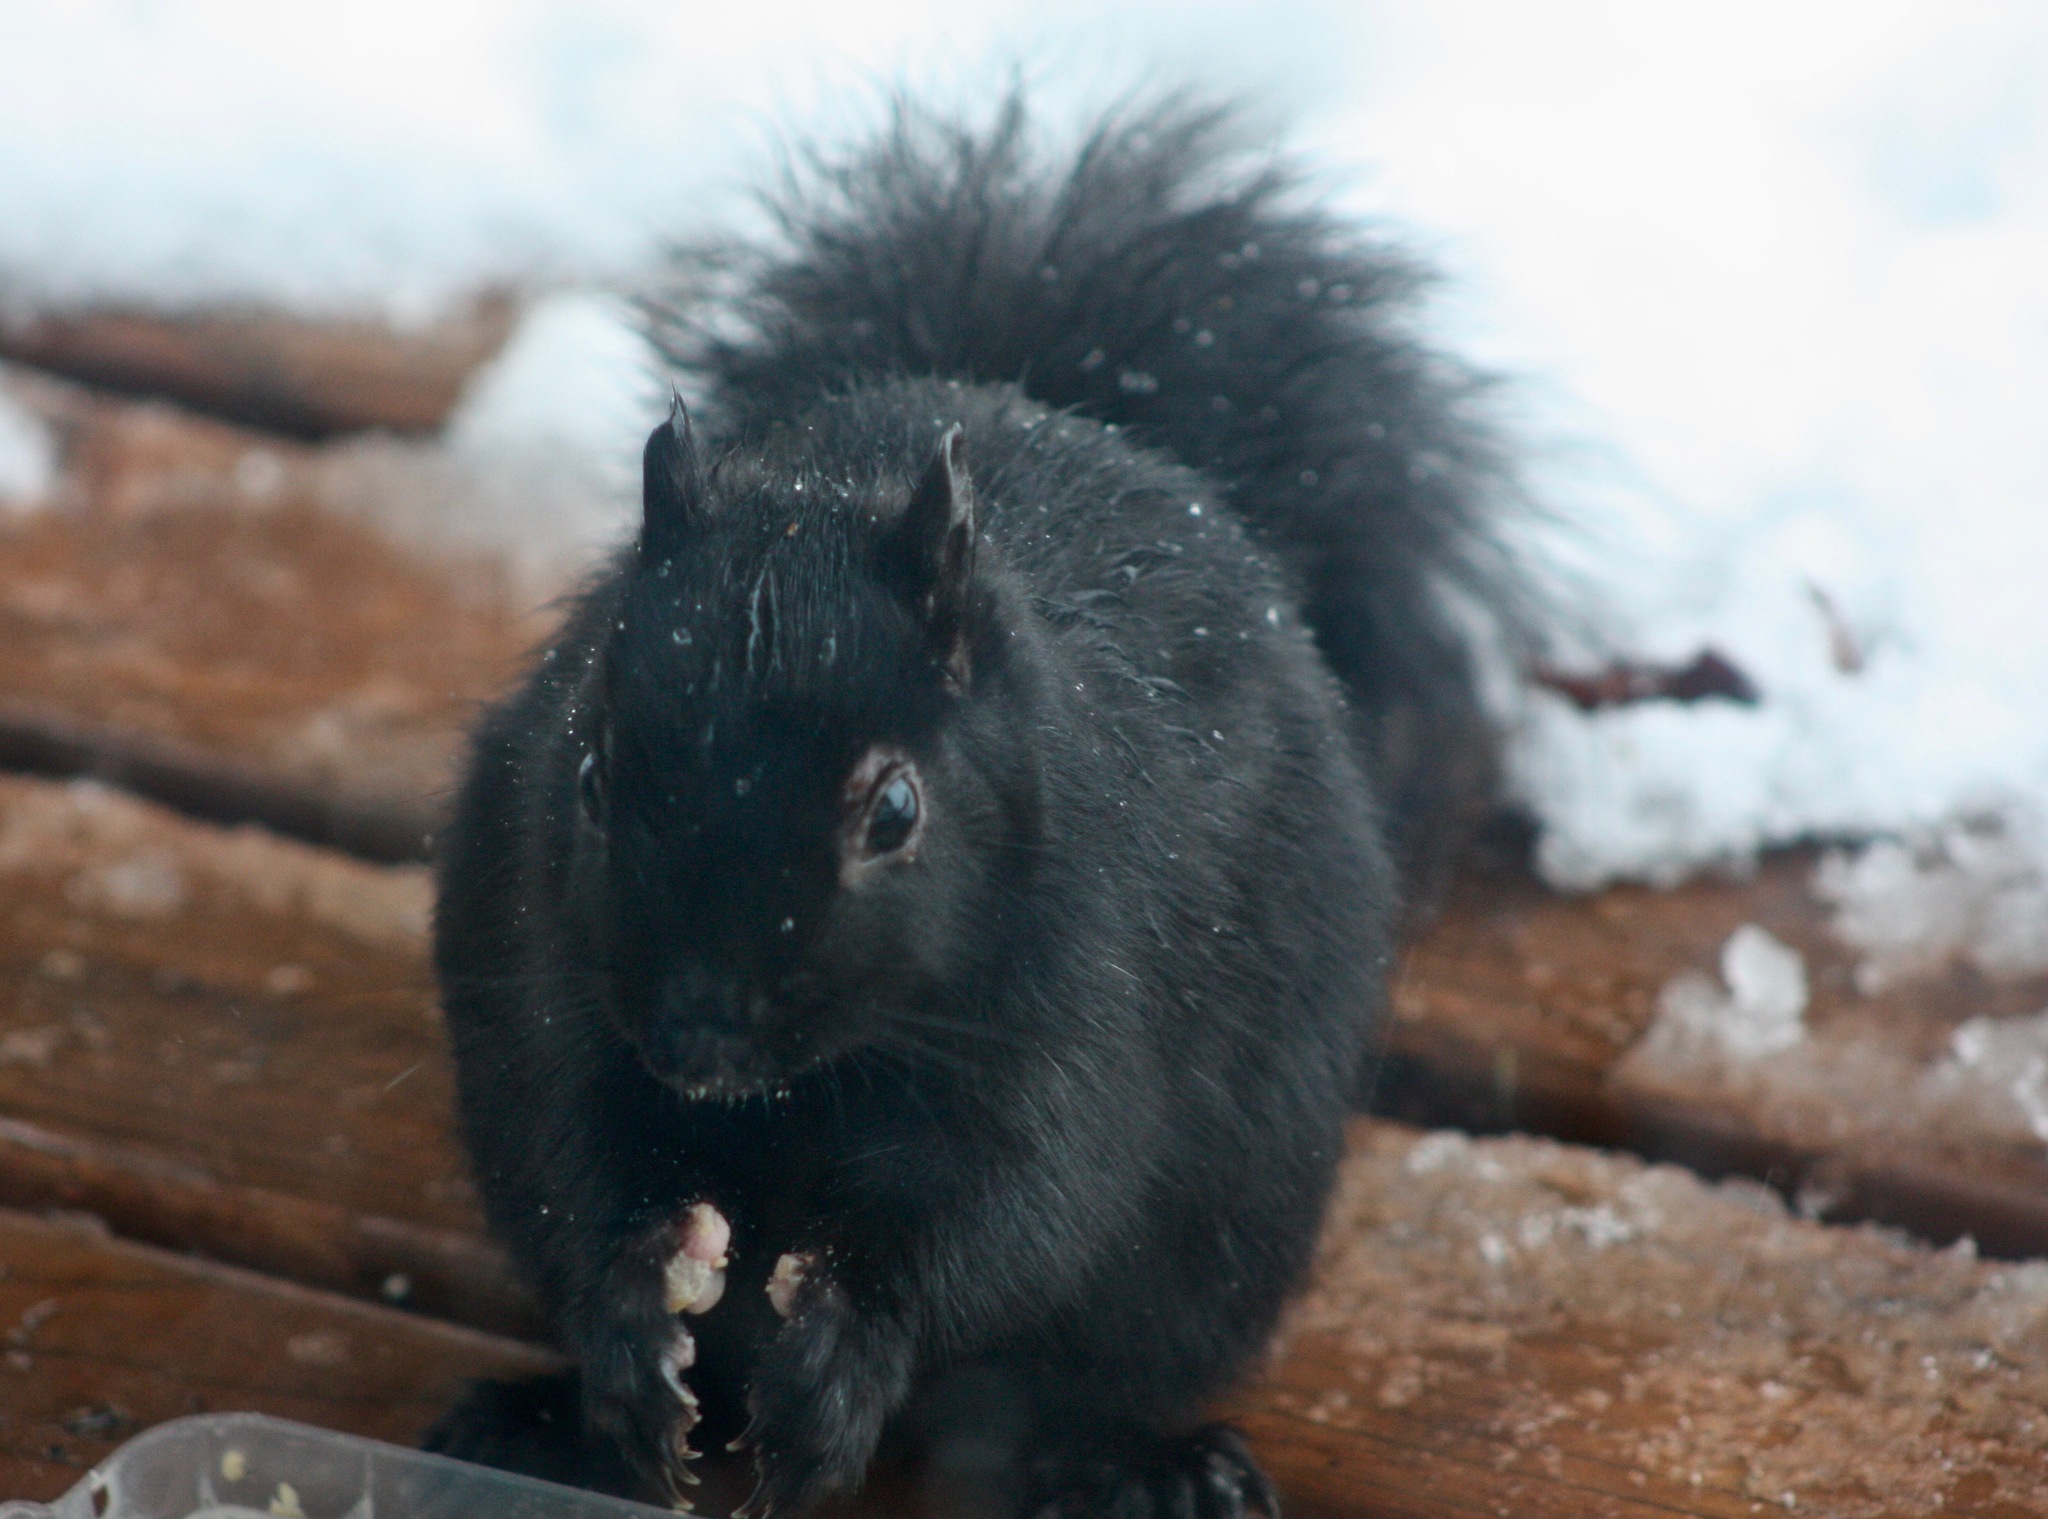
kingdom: Animalia
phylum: Chordata
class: Mammalia
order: Rodentia
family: Sciuridae
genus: Sciurus
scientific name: Sciurus carolinensis
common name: Eastern gray squirrel
